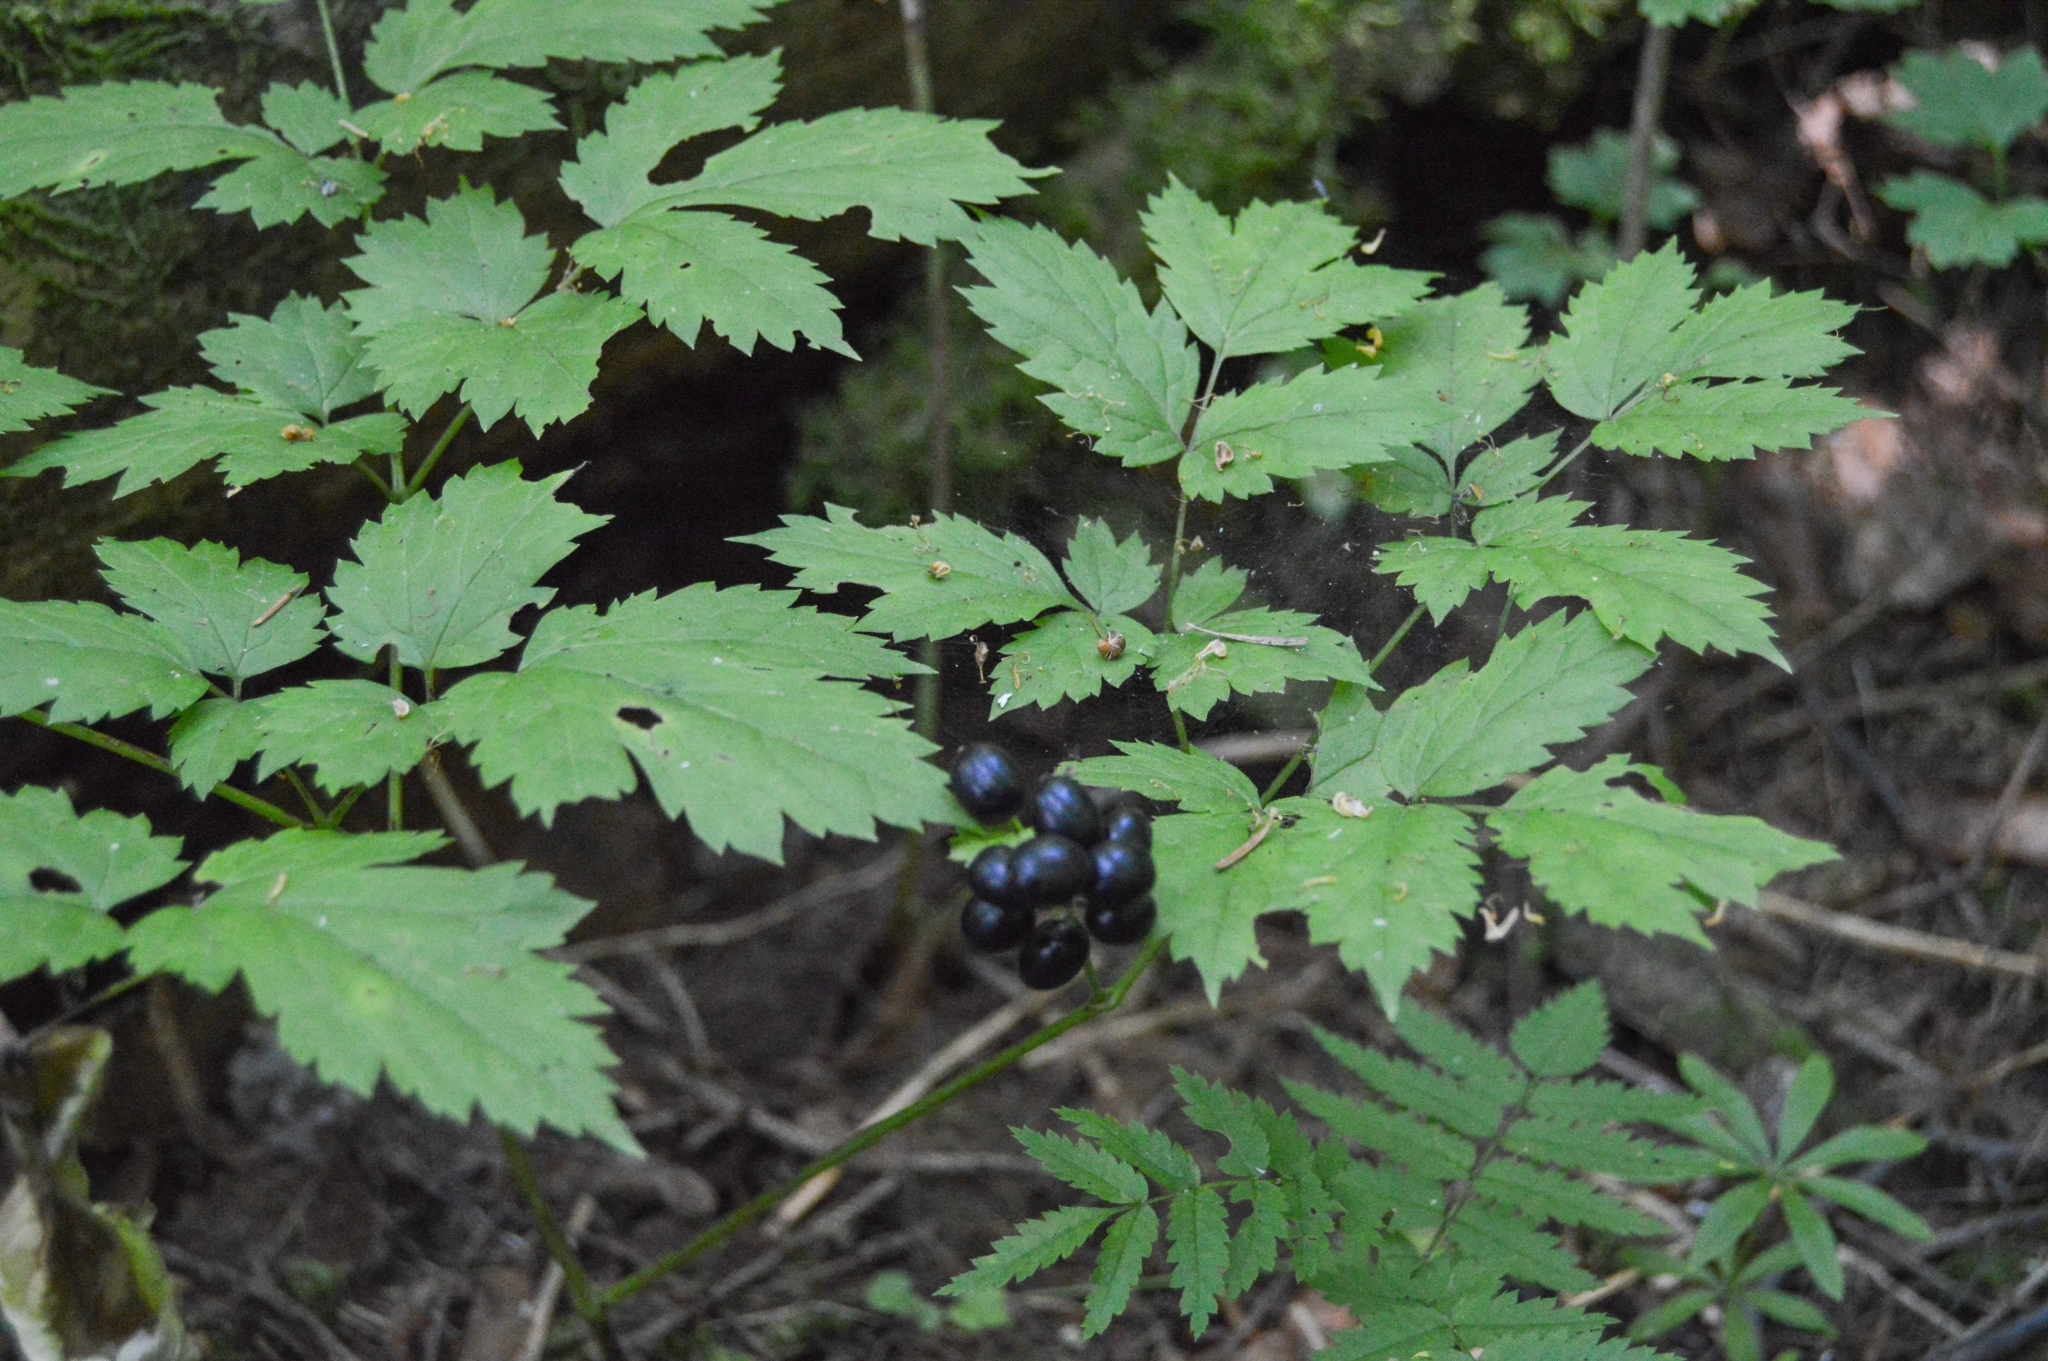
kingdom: Plantae
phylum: Tracheophyta
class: Magnoliopsida
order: Ranunculales
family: Ranunculaceae
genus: Actaea
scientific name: Actaea spicata
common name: Baneberry
